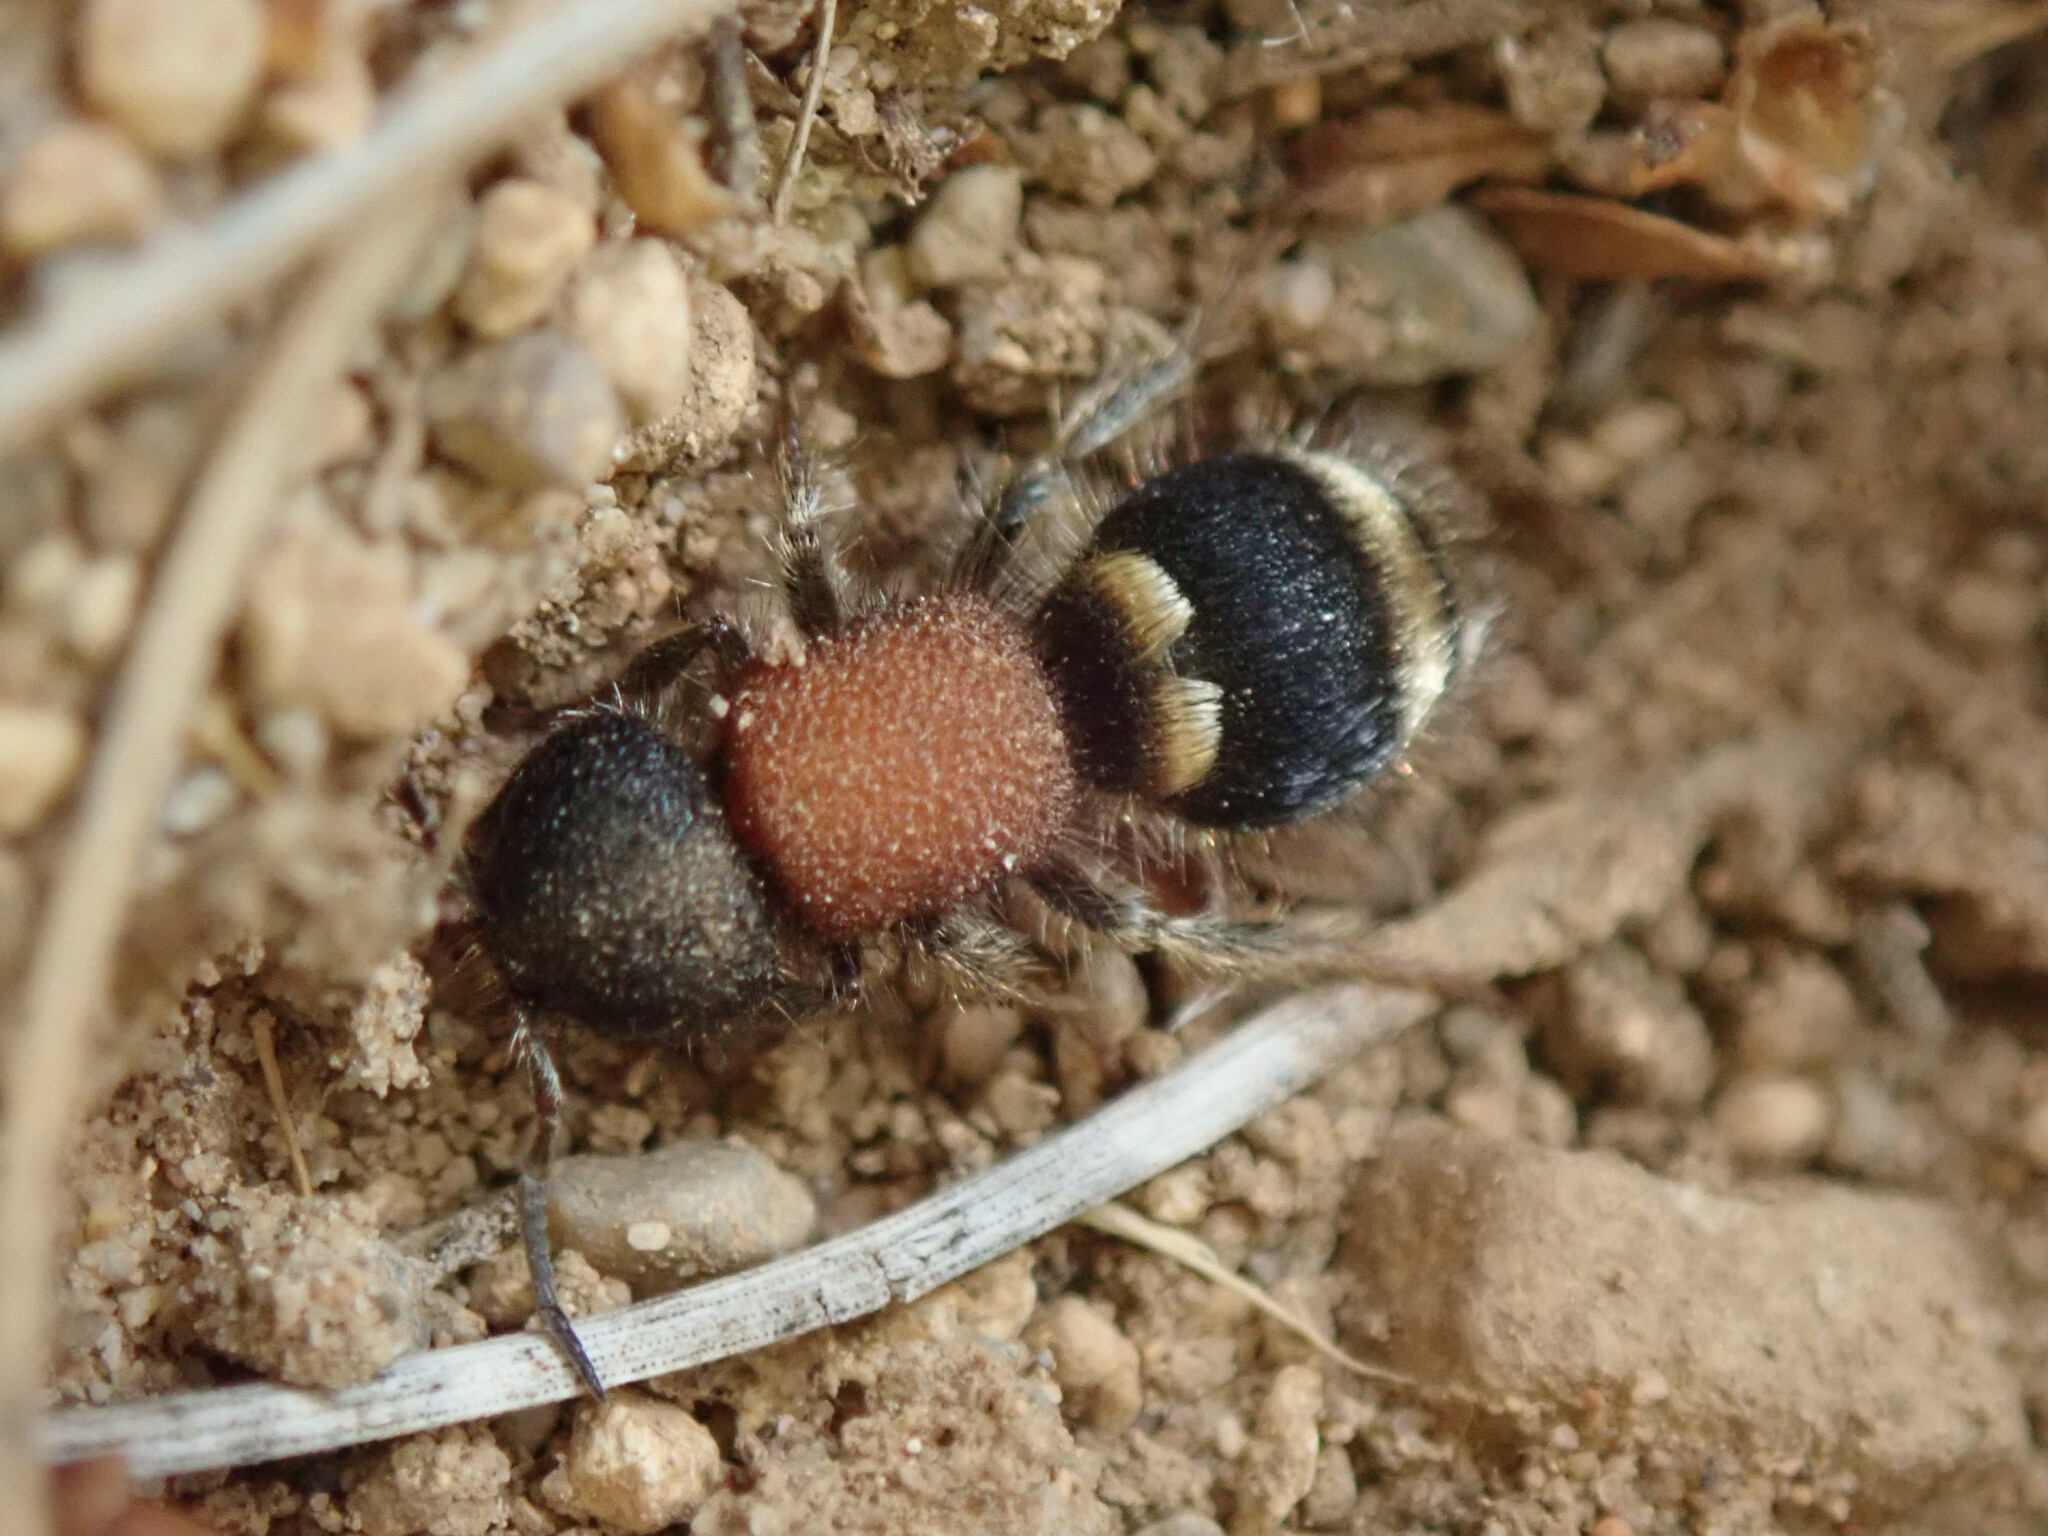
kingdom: Animalia
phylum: Arthropoda
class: Insecta
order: Hymenoptera
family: Mutillidae
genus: Tropidotilla
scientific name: Tropidotilla litoralis
